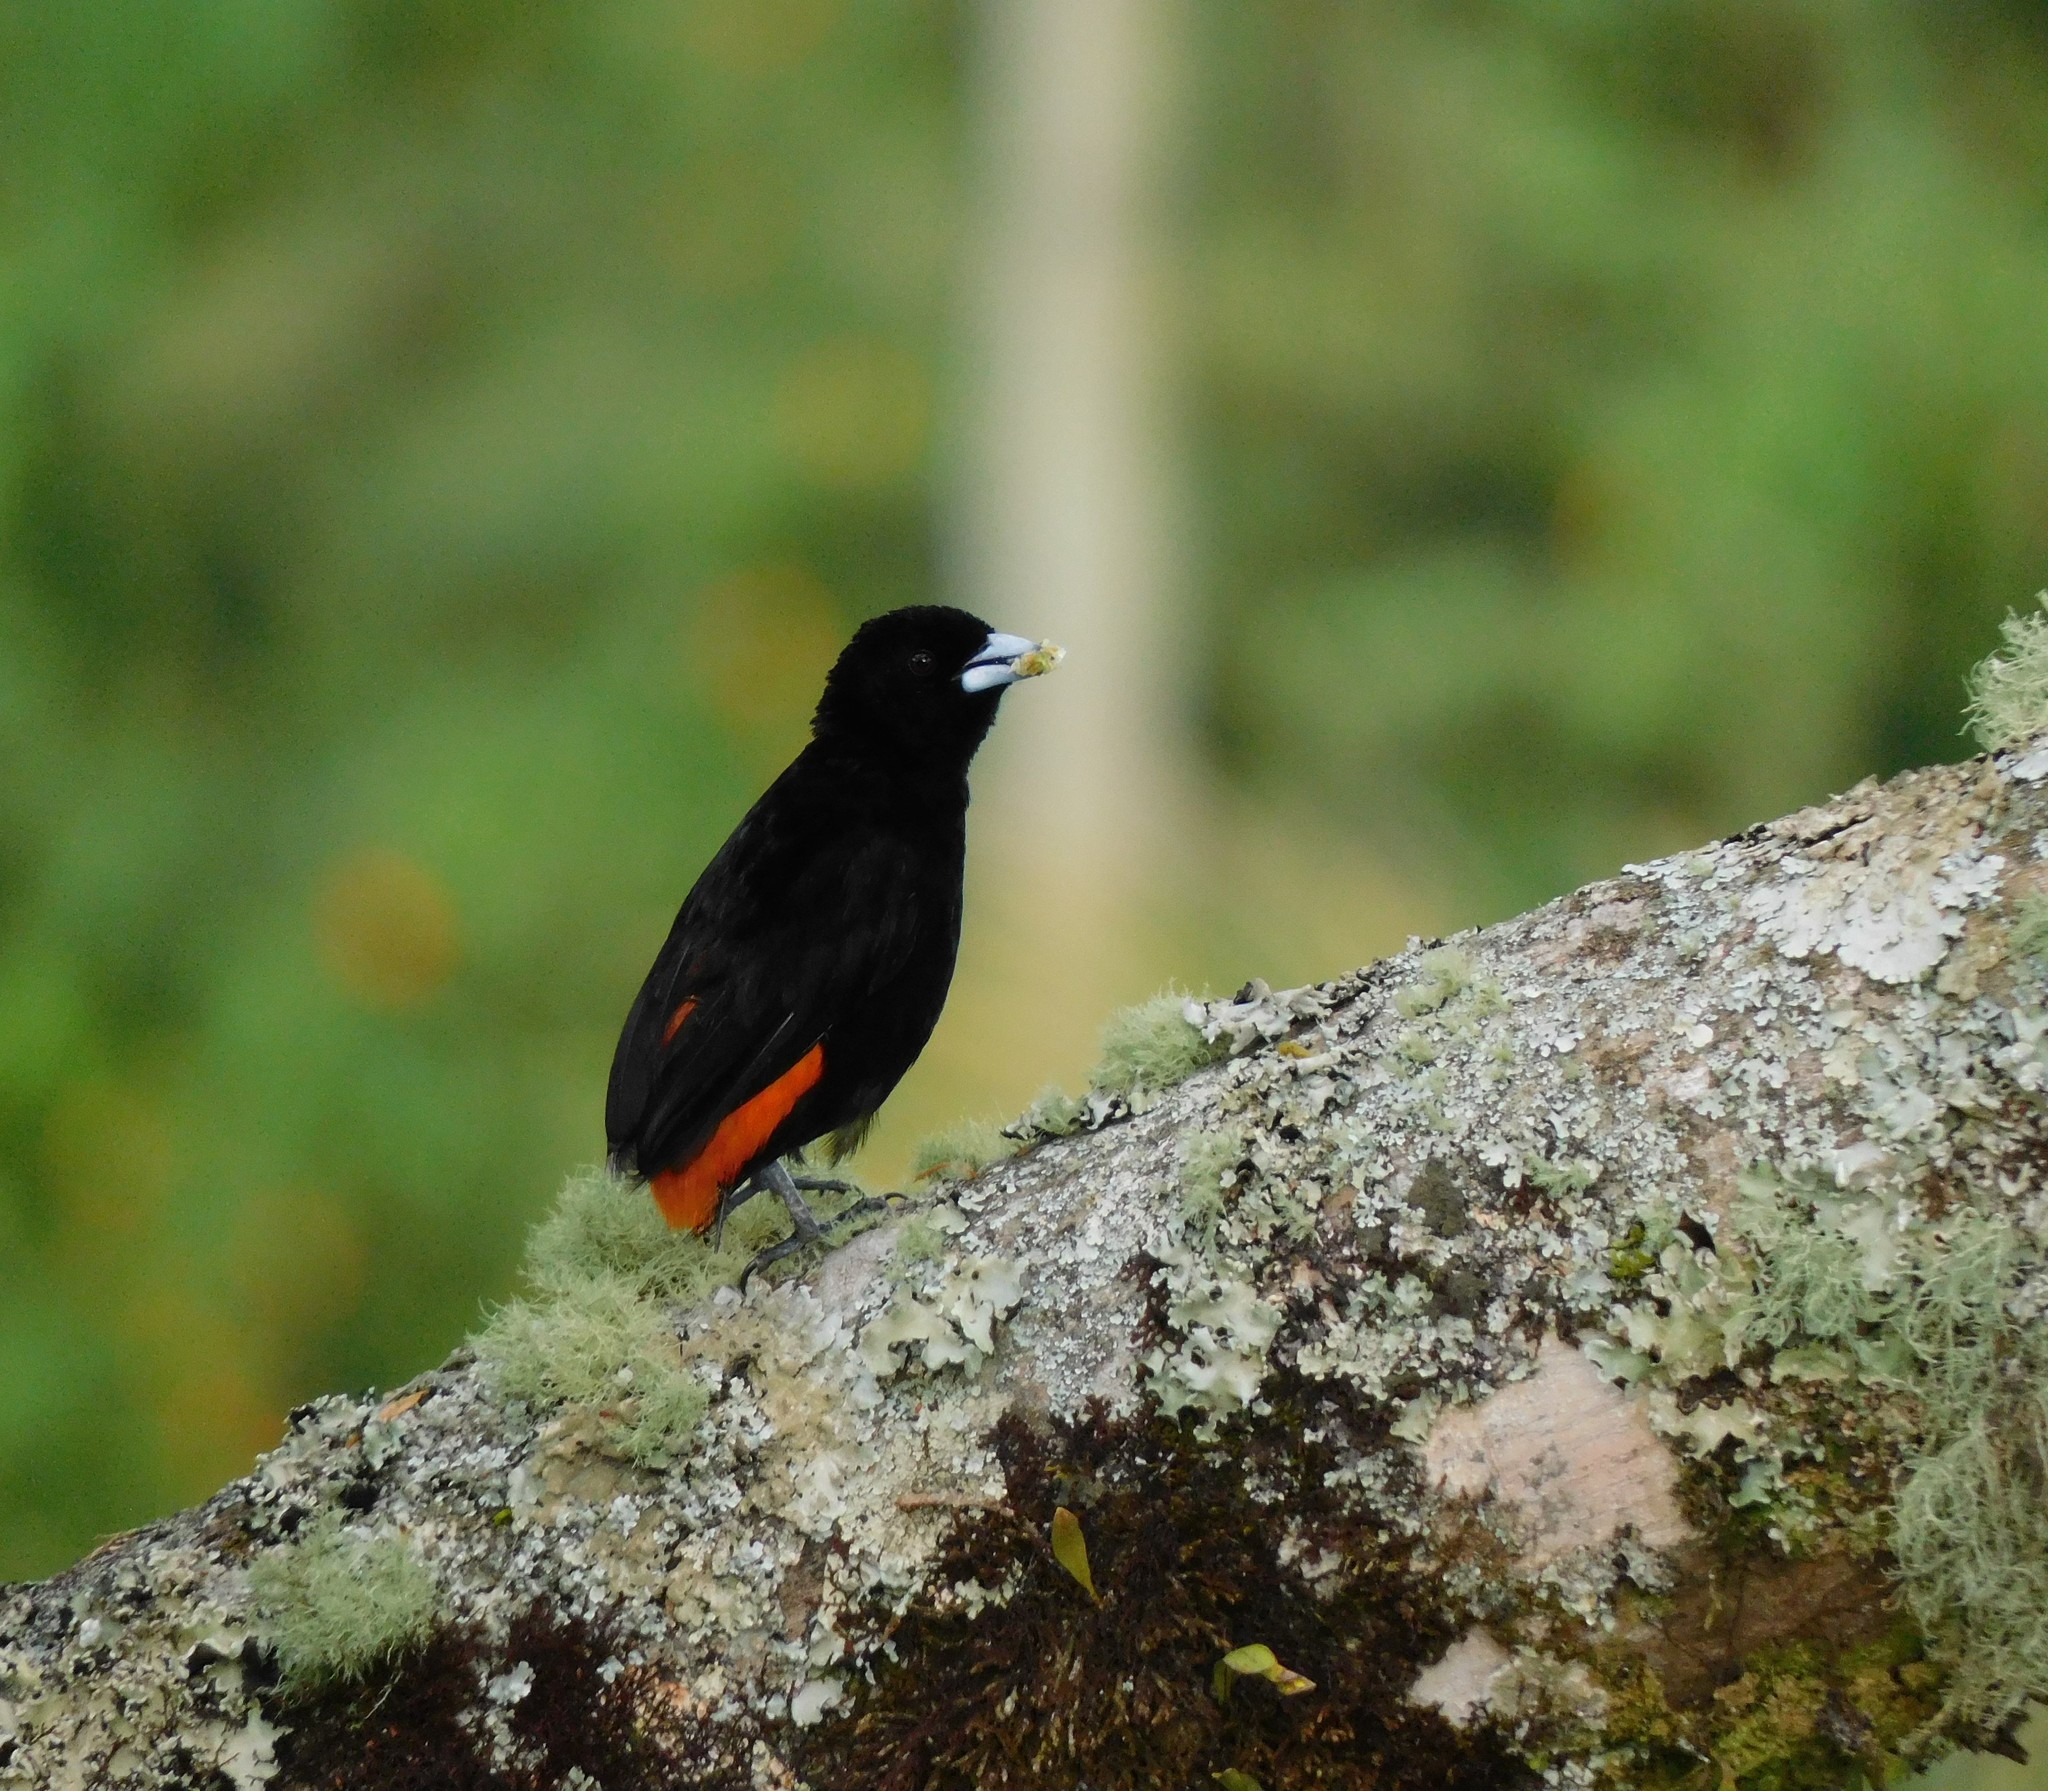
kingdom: Animalia
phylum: Chordata
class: Aves
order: Passeriformes
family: Thraupidae
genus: Ramphocelus
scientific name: Ramphocelus flammigerus
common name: Flame-rumped tanager
